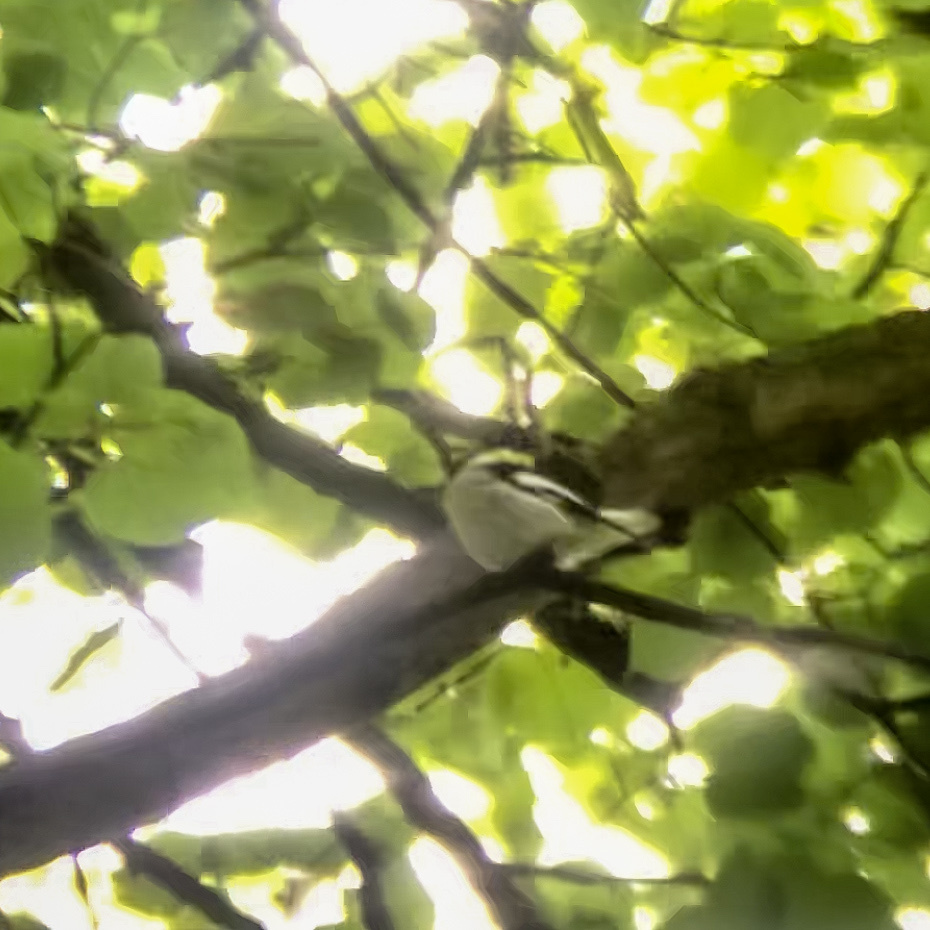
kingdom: Animalia
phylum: Chordata
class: Aves
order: Passeriformes
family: Muscicapidae
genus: Ficedula
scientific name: Ficedula albicollis
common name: Collared flycatcher
